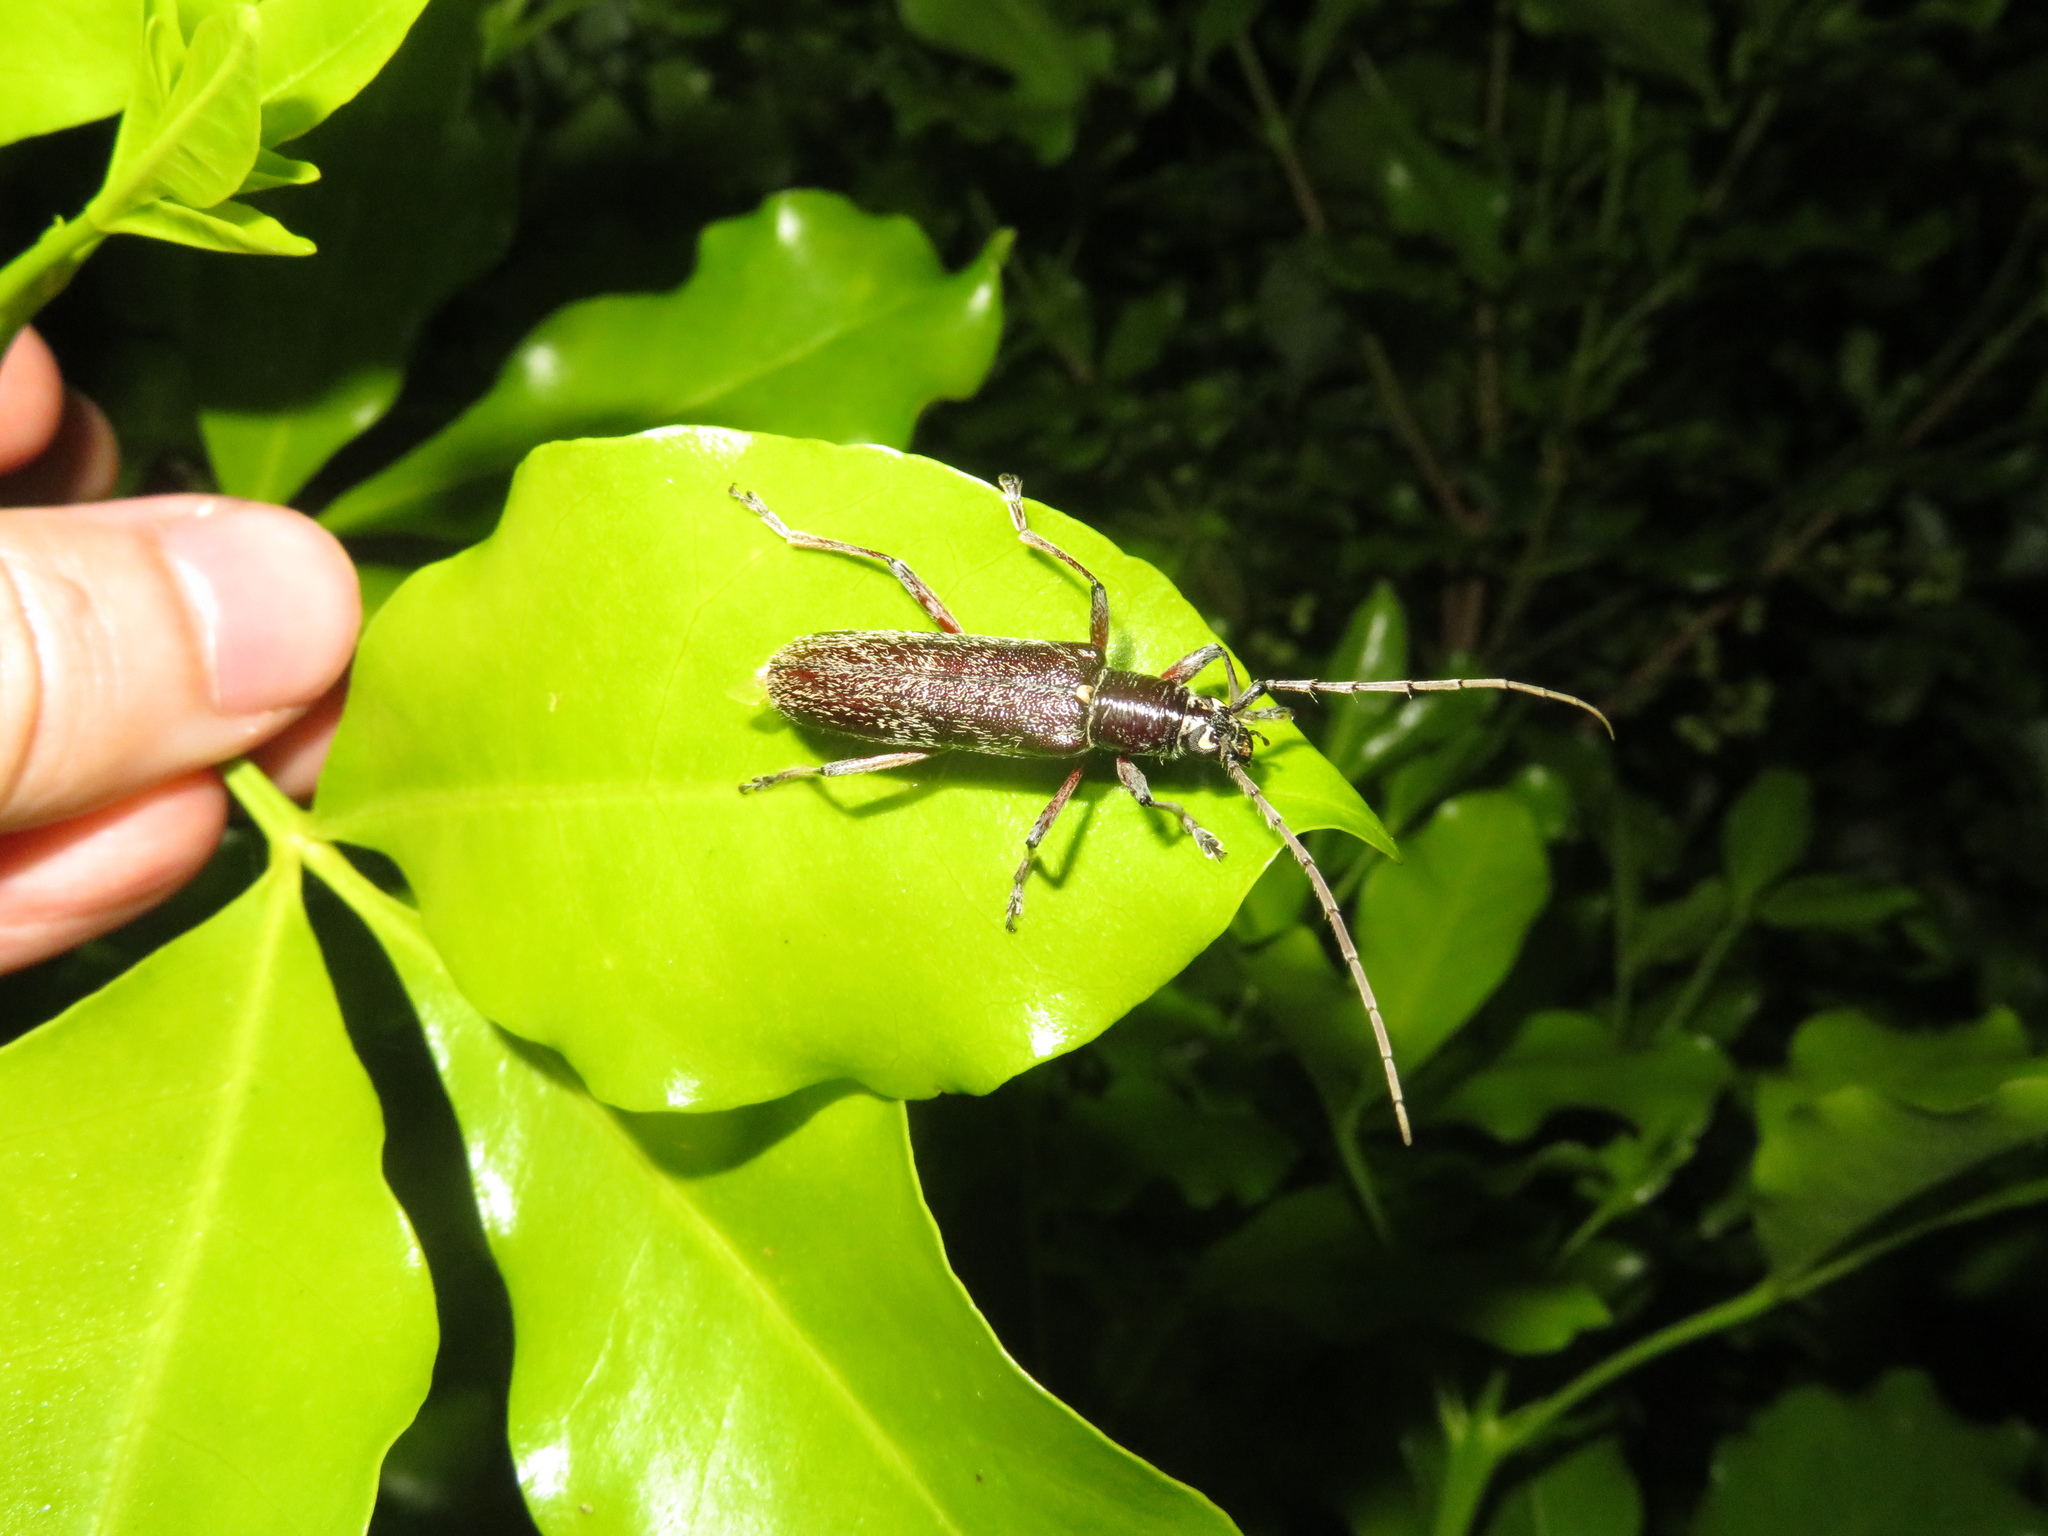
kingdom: Animalia
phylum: Arthropoda
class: Insecta
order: Coleoptera
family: Cerambycidae
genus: Oemona
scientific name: Oemona hirta
